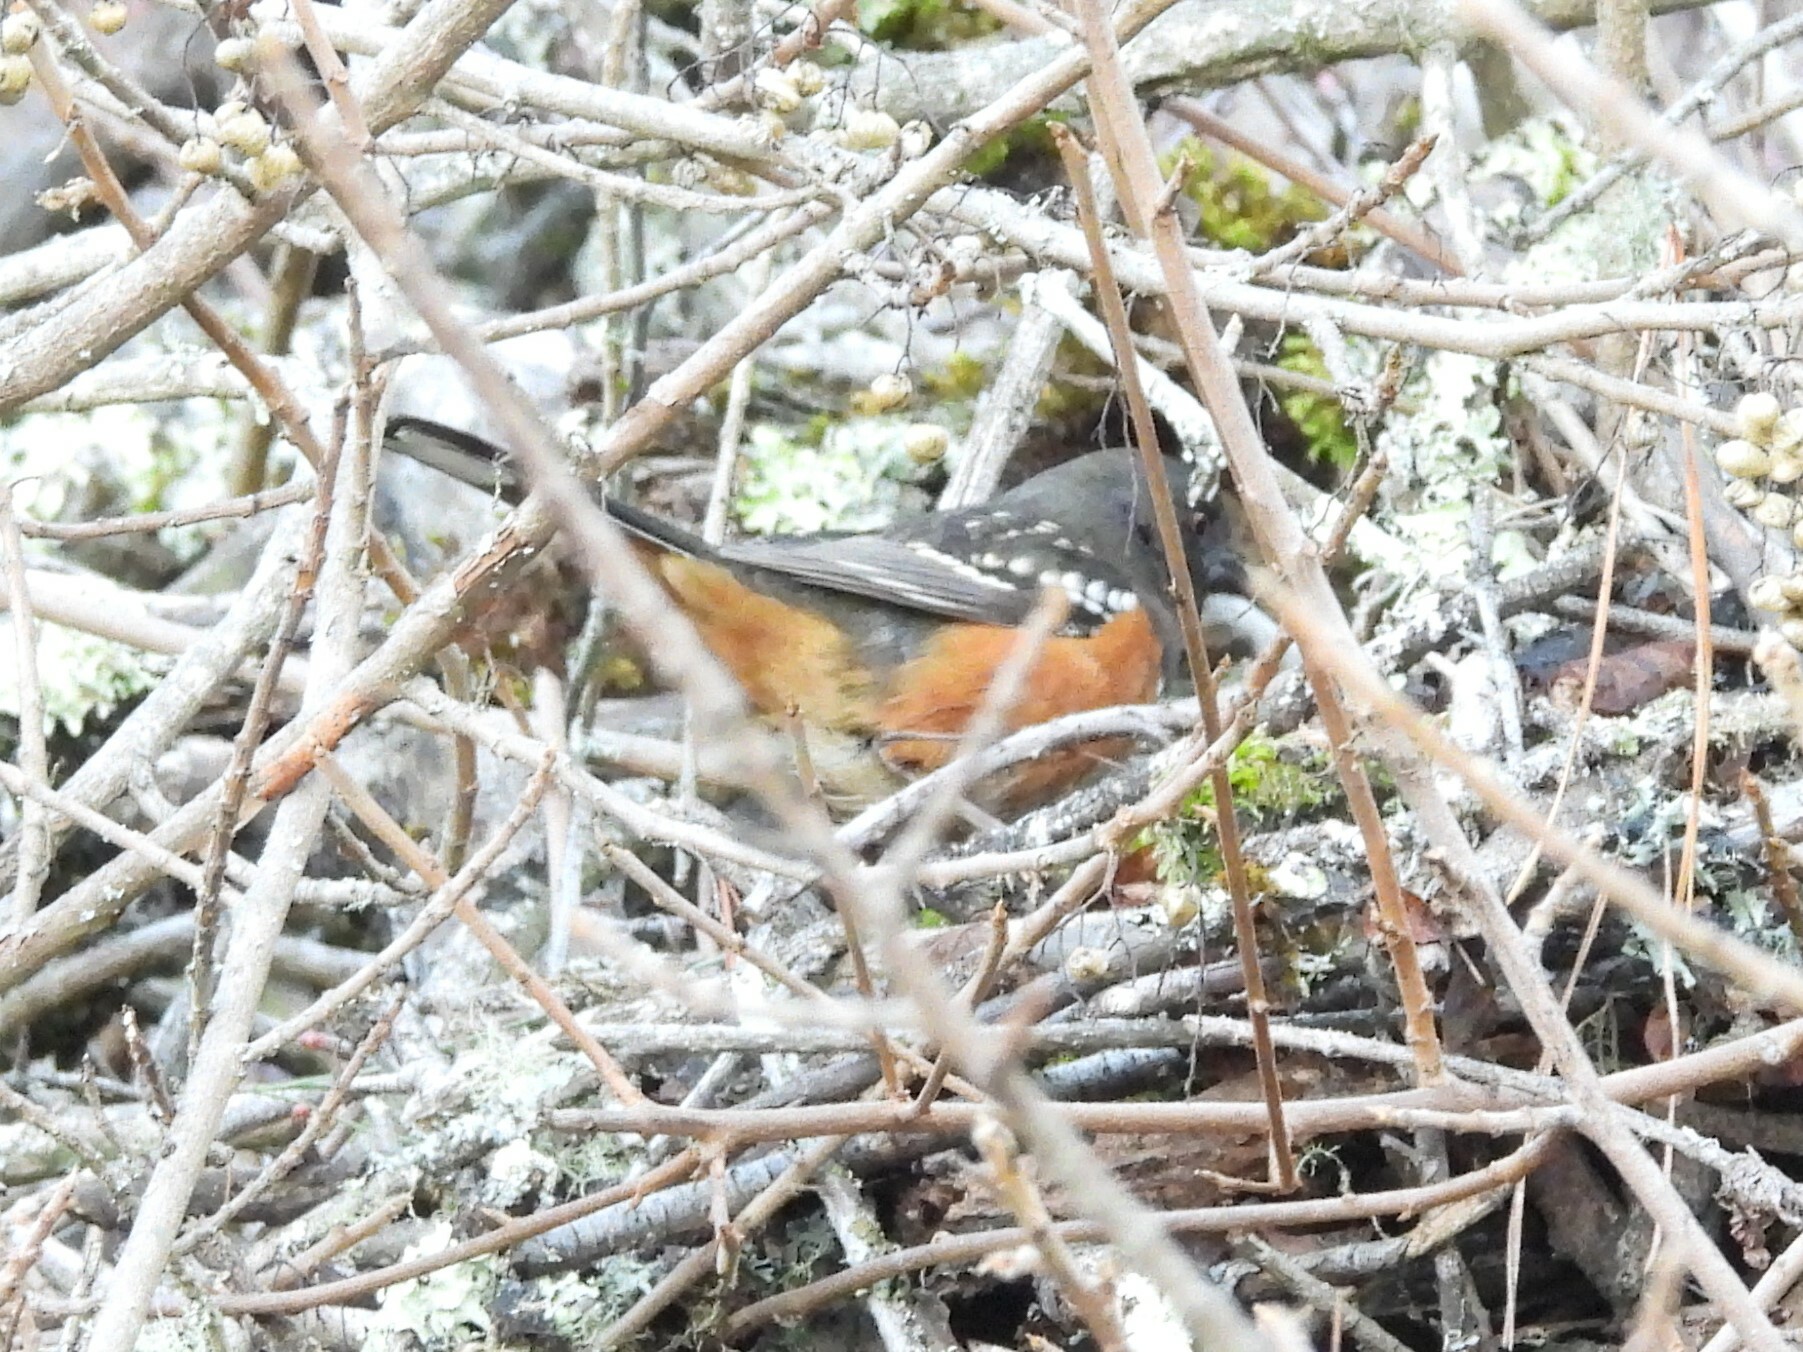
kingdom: Animalia
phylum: Chordata
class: Aves
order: Passeriformes
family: Passerellidae
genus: Pipilo
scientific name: Pipilo maculatus
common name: Spotted towhee
